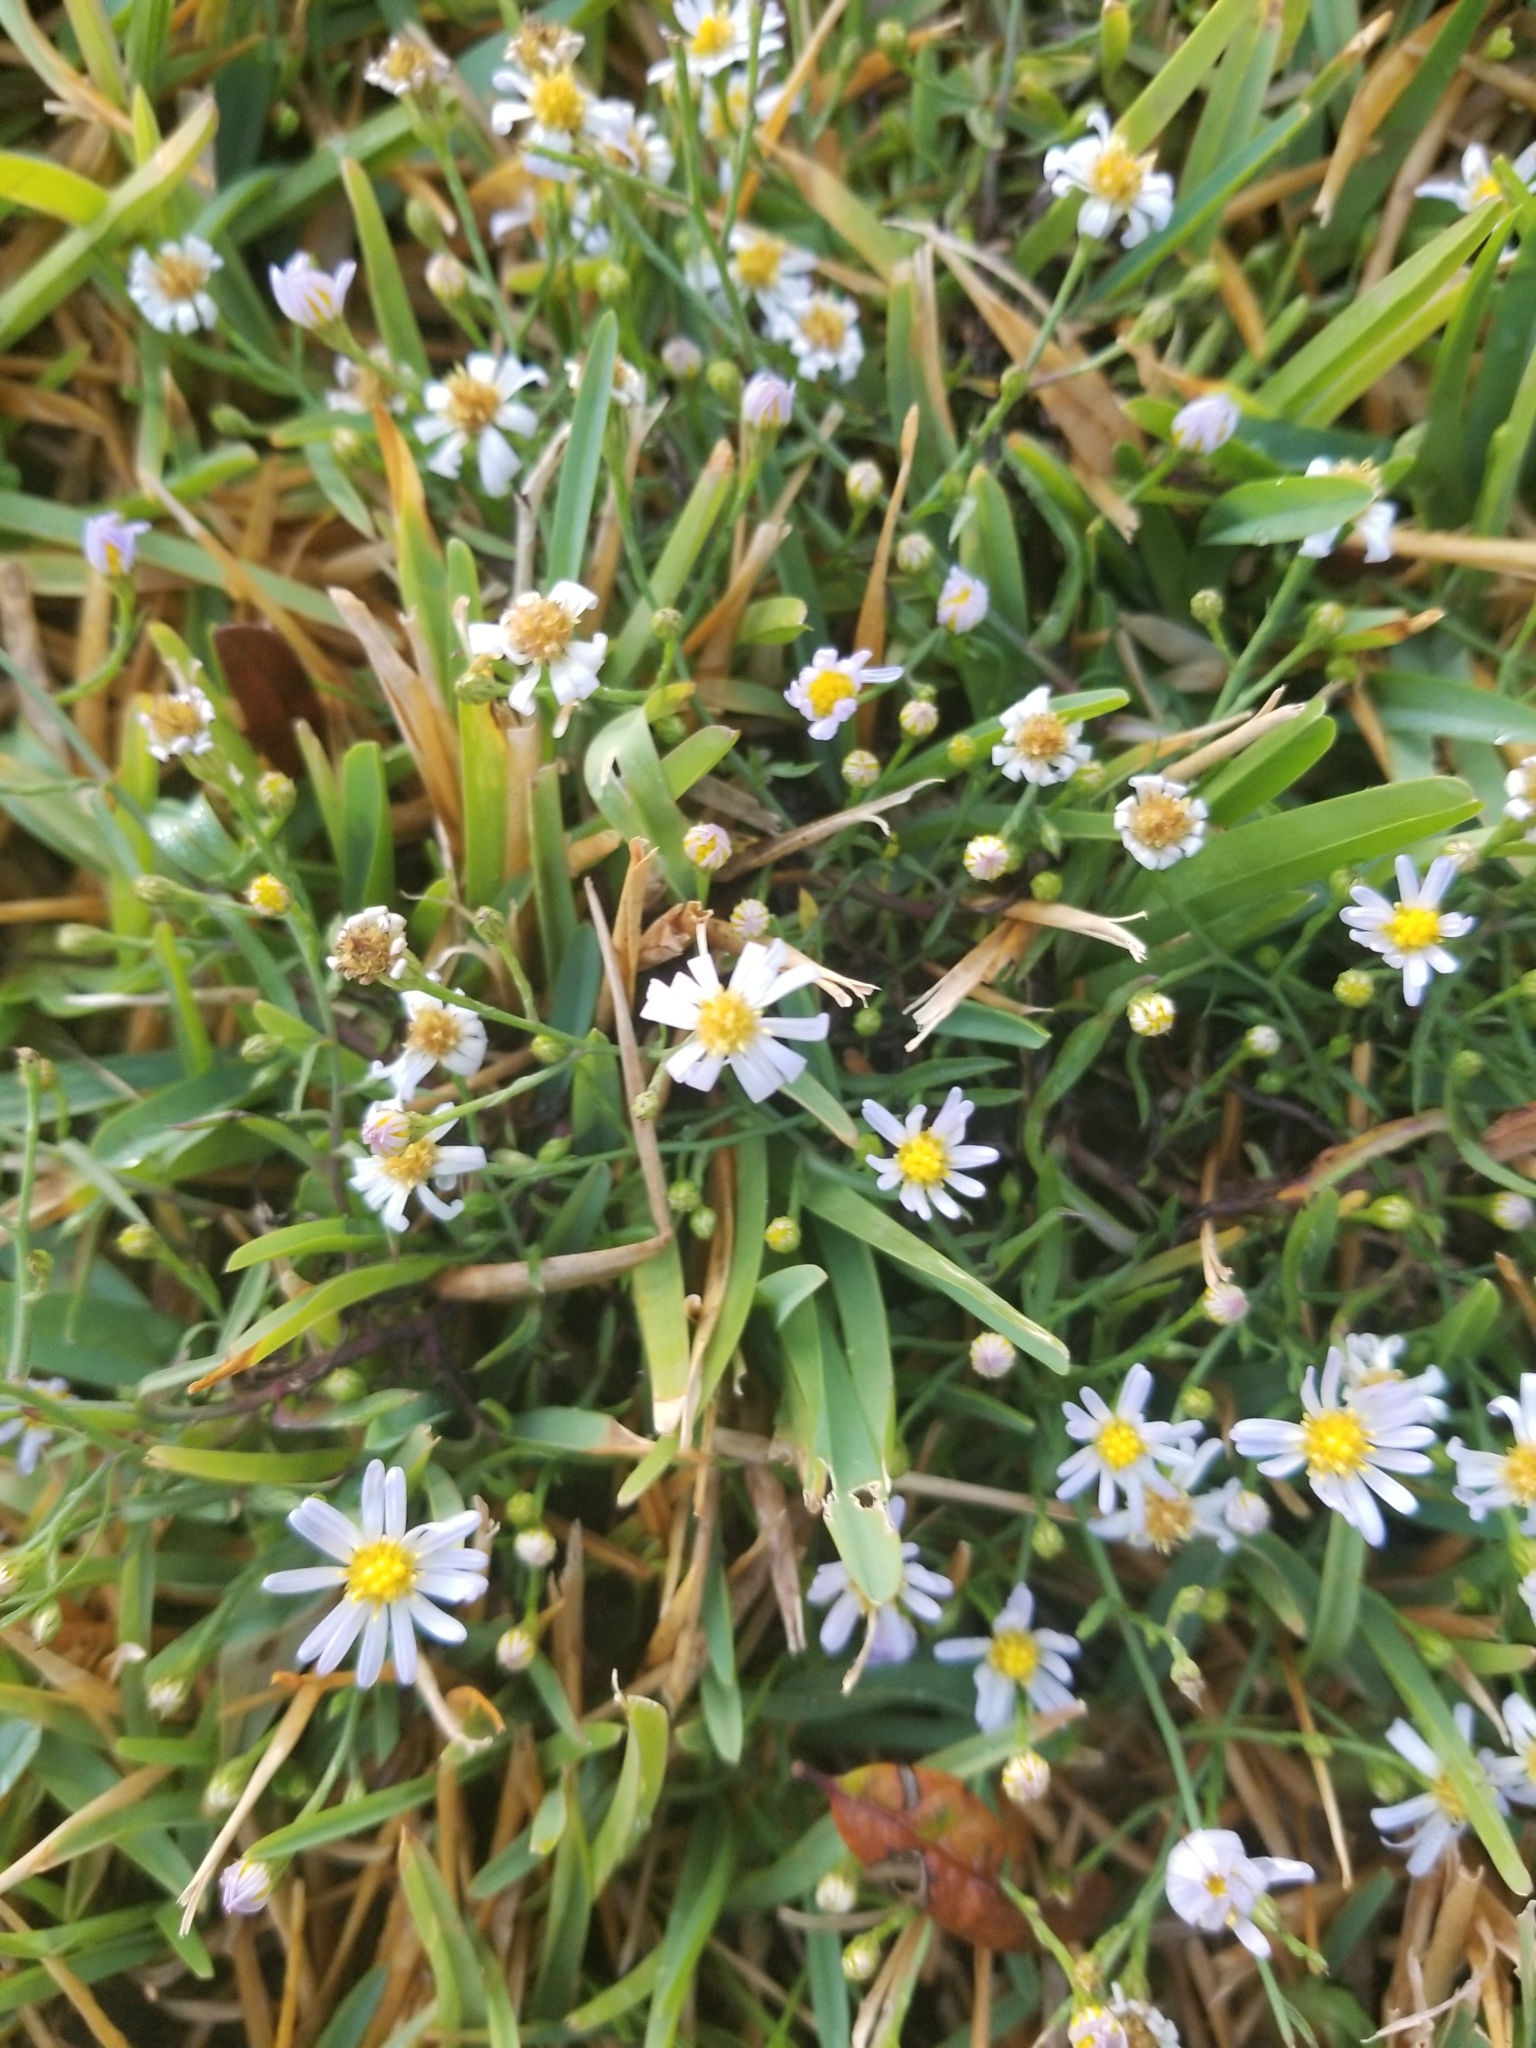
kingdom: Plantae
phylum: Tracheophyta
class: Magnoliopsida
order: Asterales
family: Asteraceae
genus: Symphyotrichum
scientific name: Symphyotrichum divaricatum
